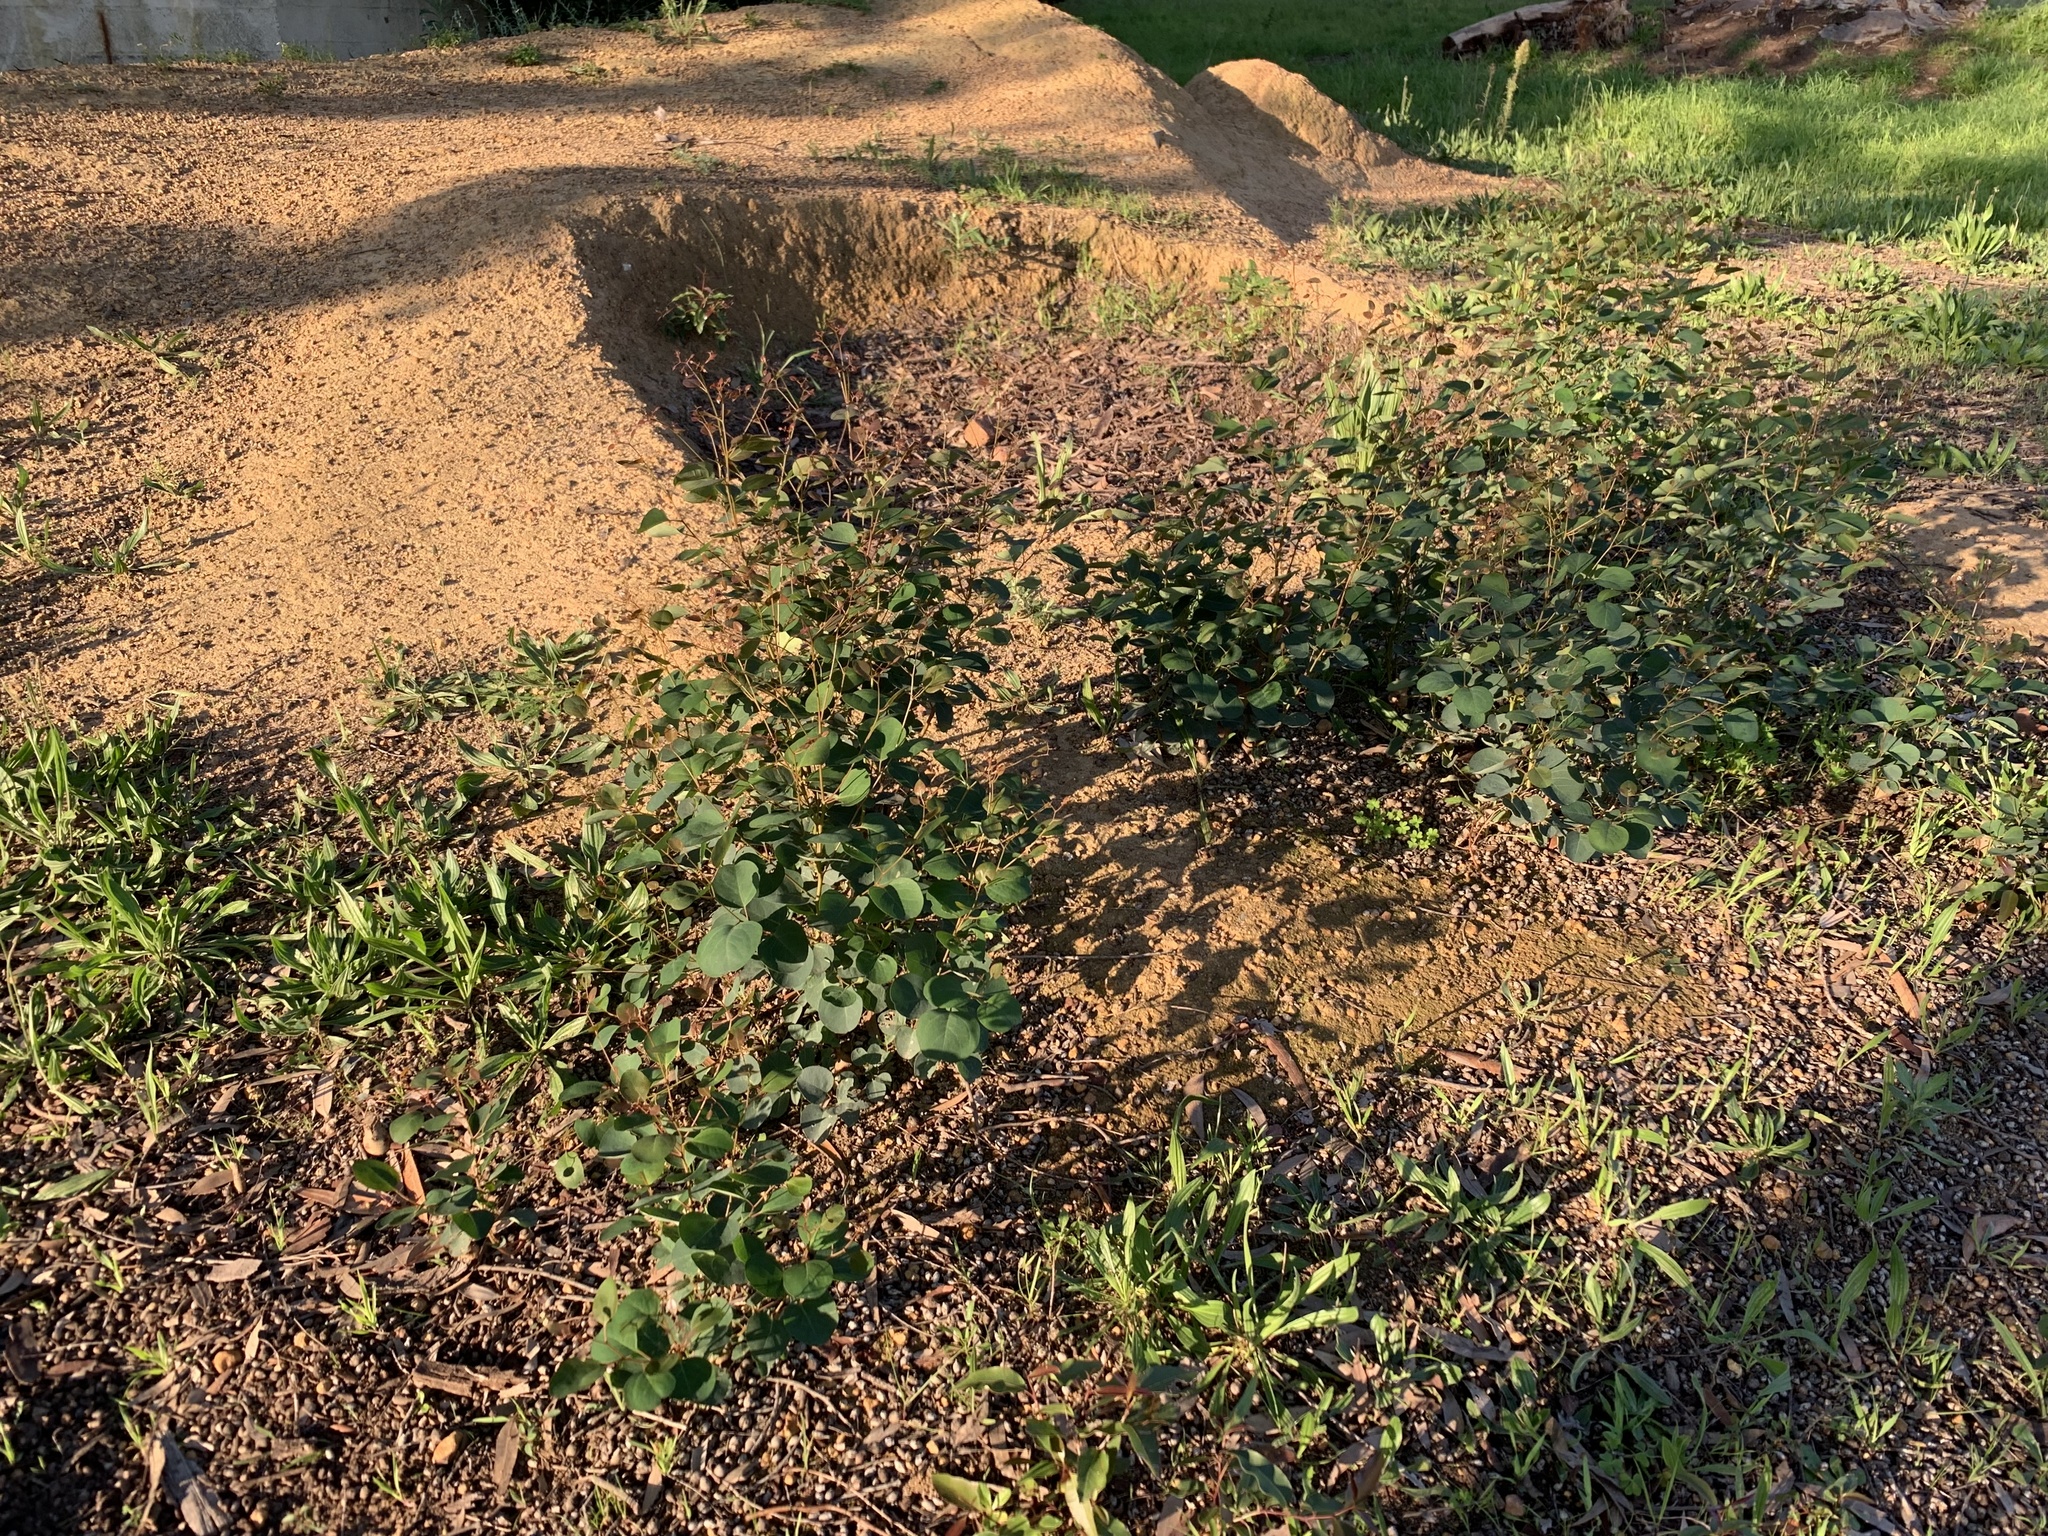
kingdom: Plantae
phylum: Tracheophyta
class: Magnoliopsida
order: Myrtales
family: Myrtaceae
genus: Eucalyptus
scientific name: Eucalyptus cladocalyx
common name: Sugargum
